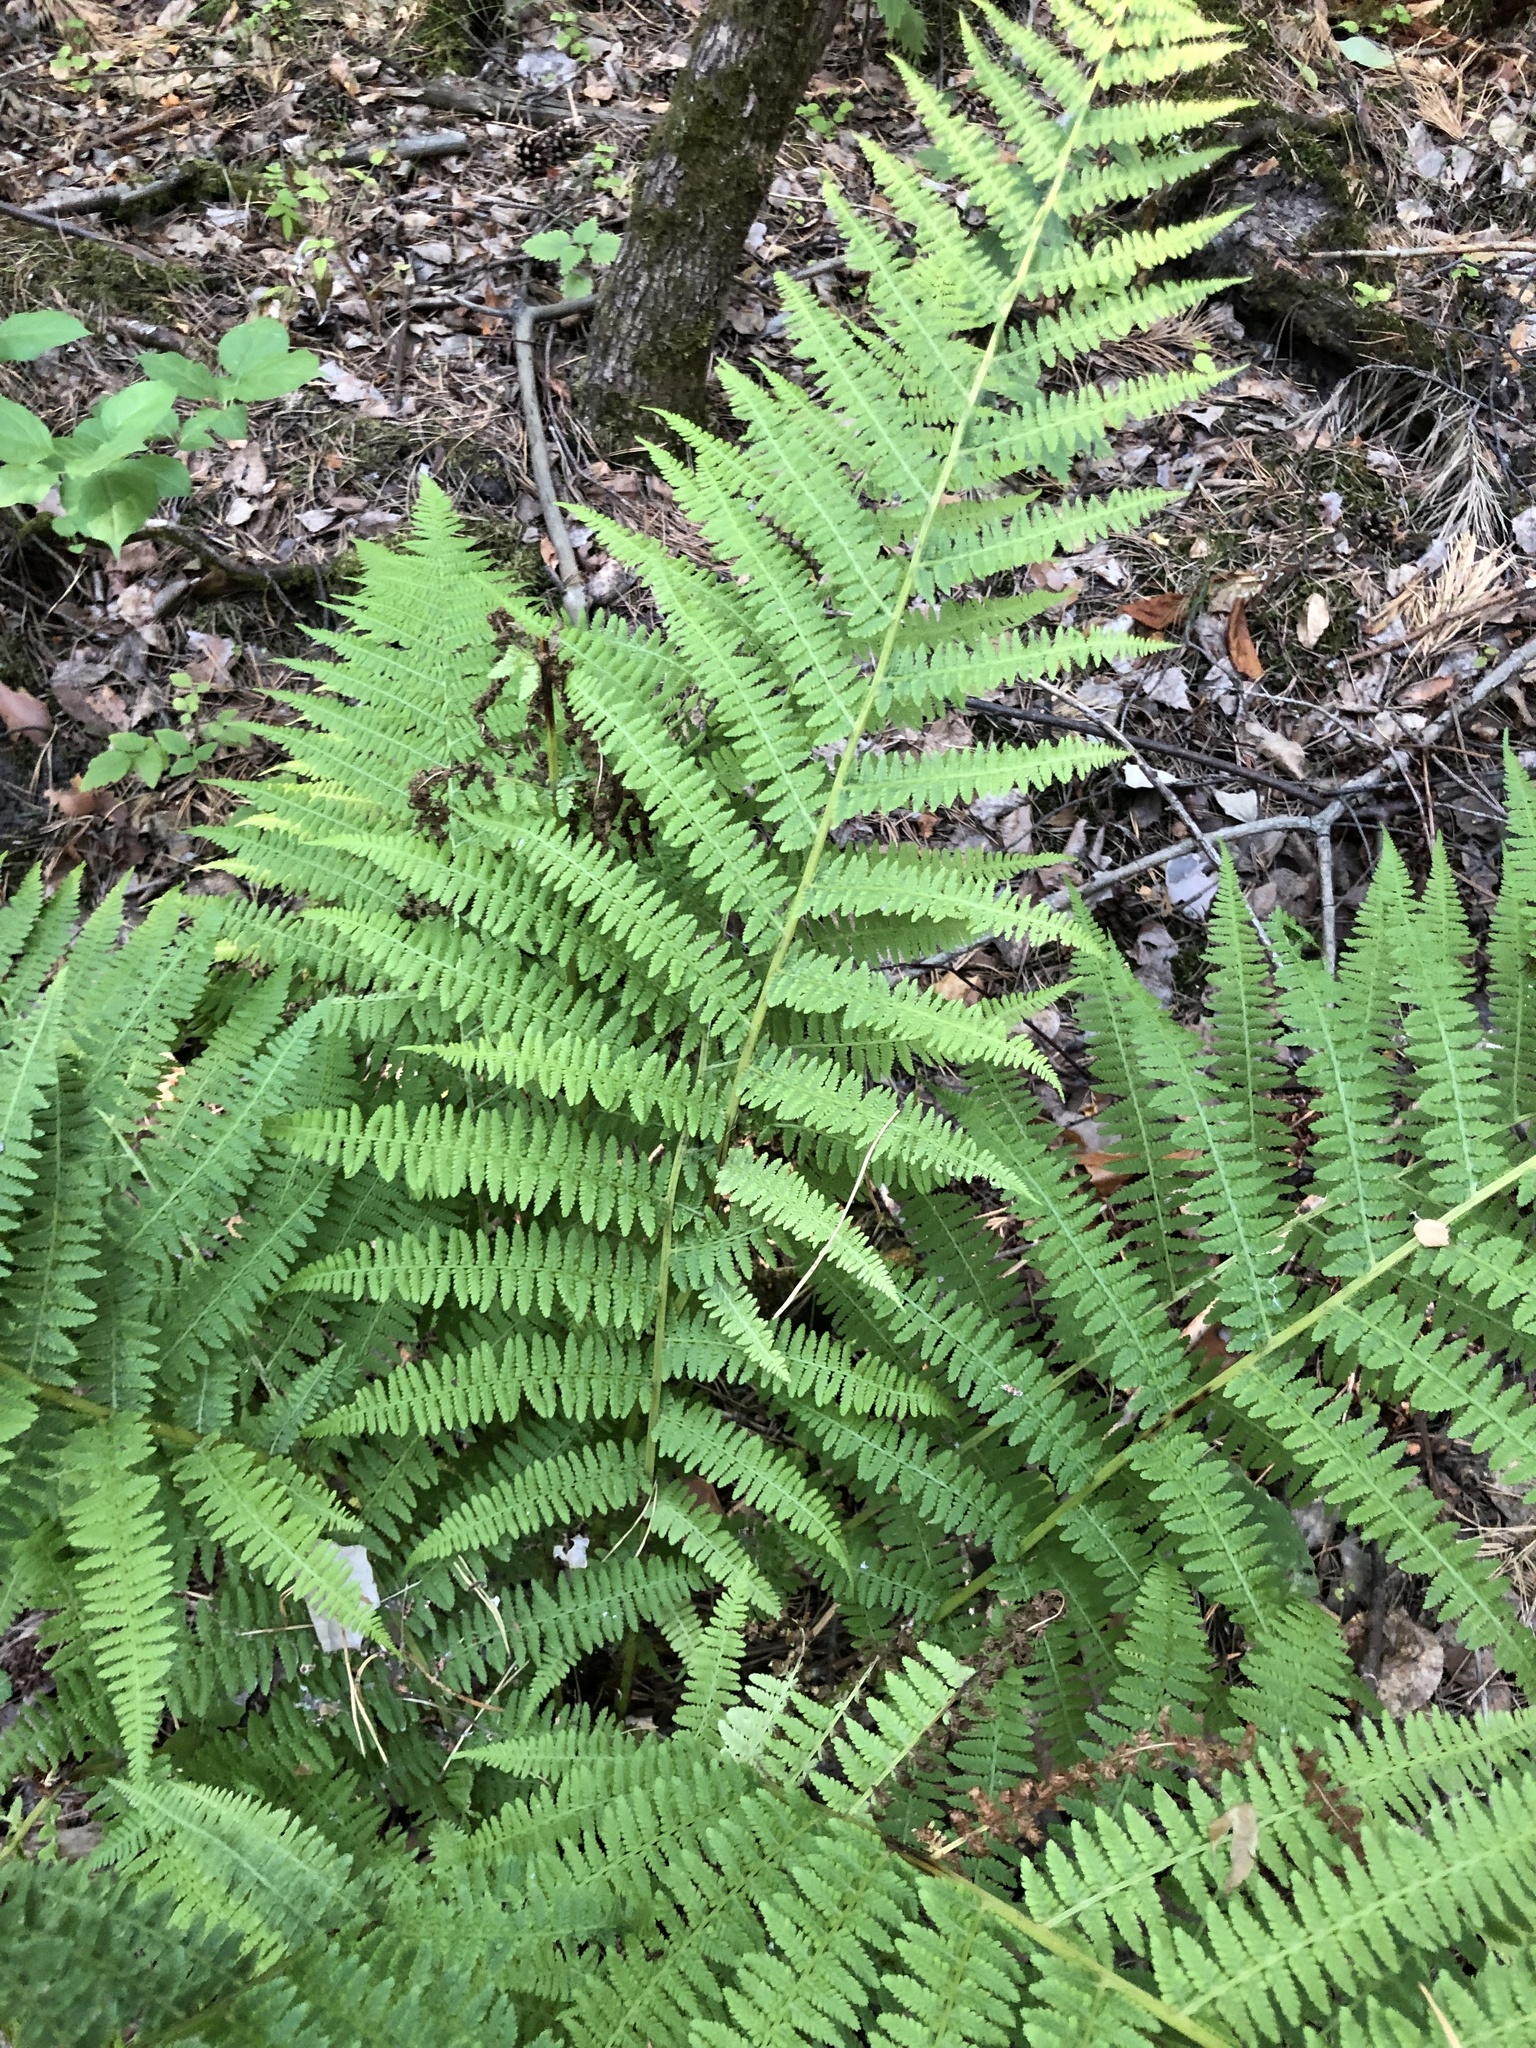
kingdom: Plantae
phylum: Tracheophyta
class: Polypodiopsida
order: Polypodiales
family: Athyriaceae
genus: Athyrium
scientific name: Athyrium filix-femina
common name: Lady fern
